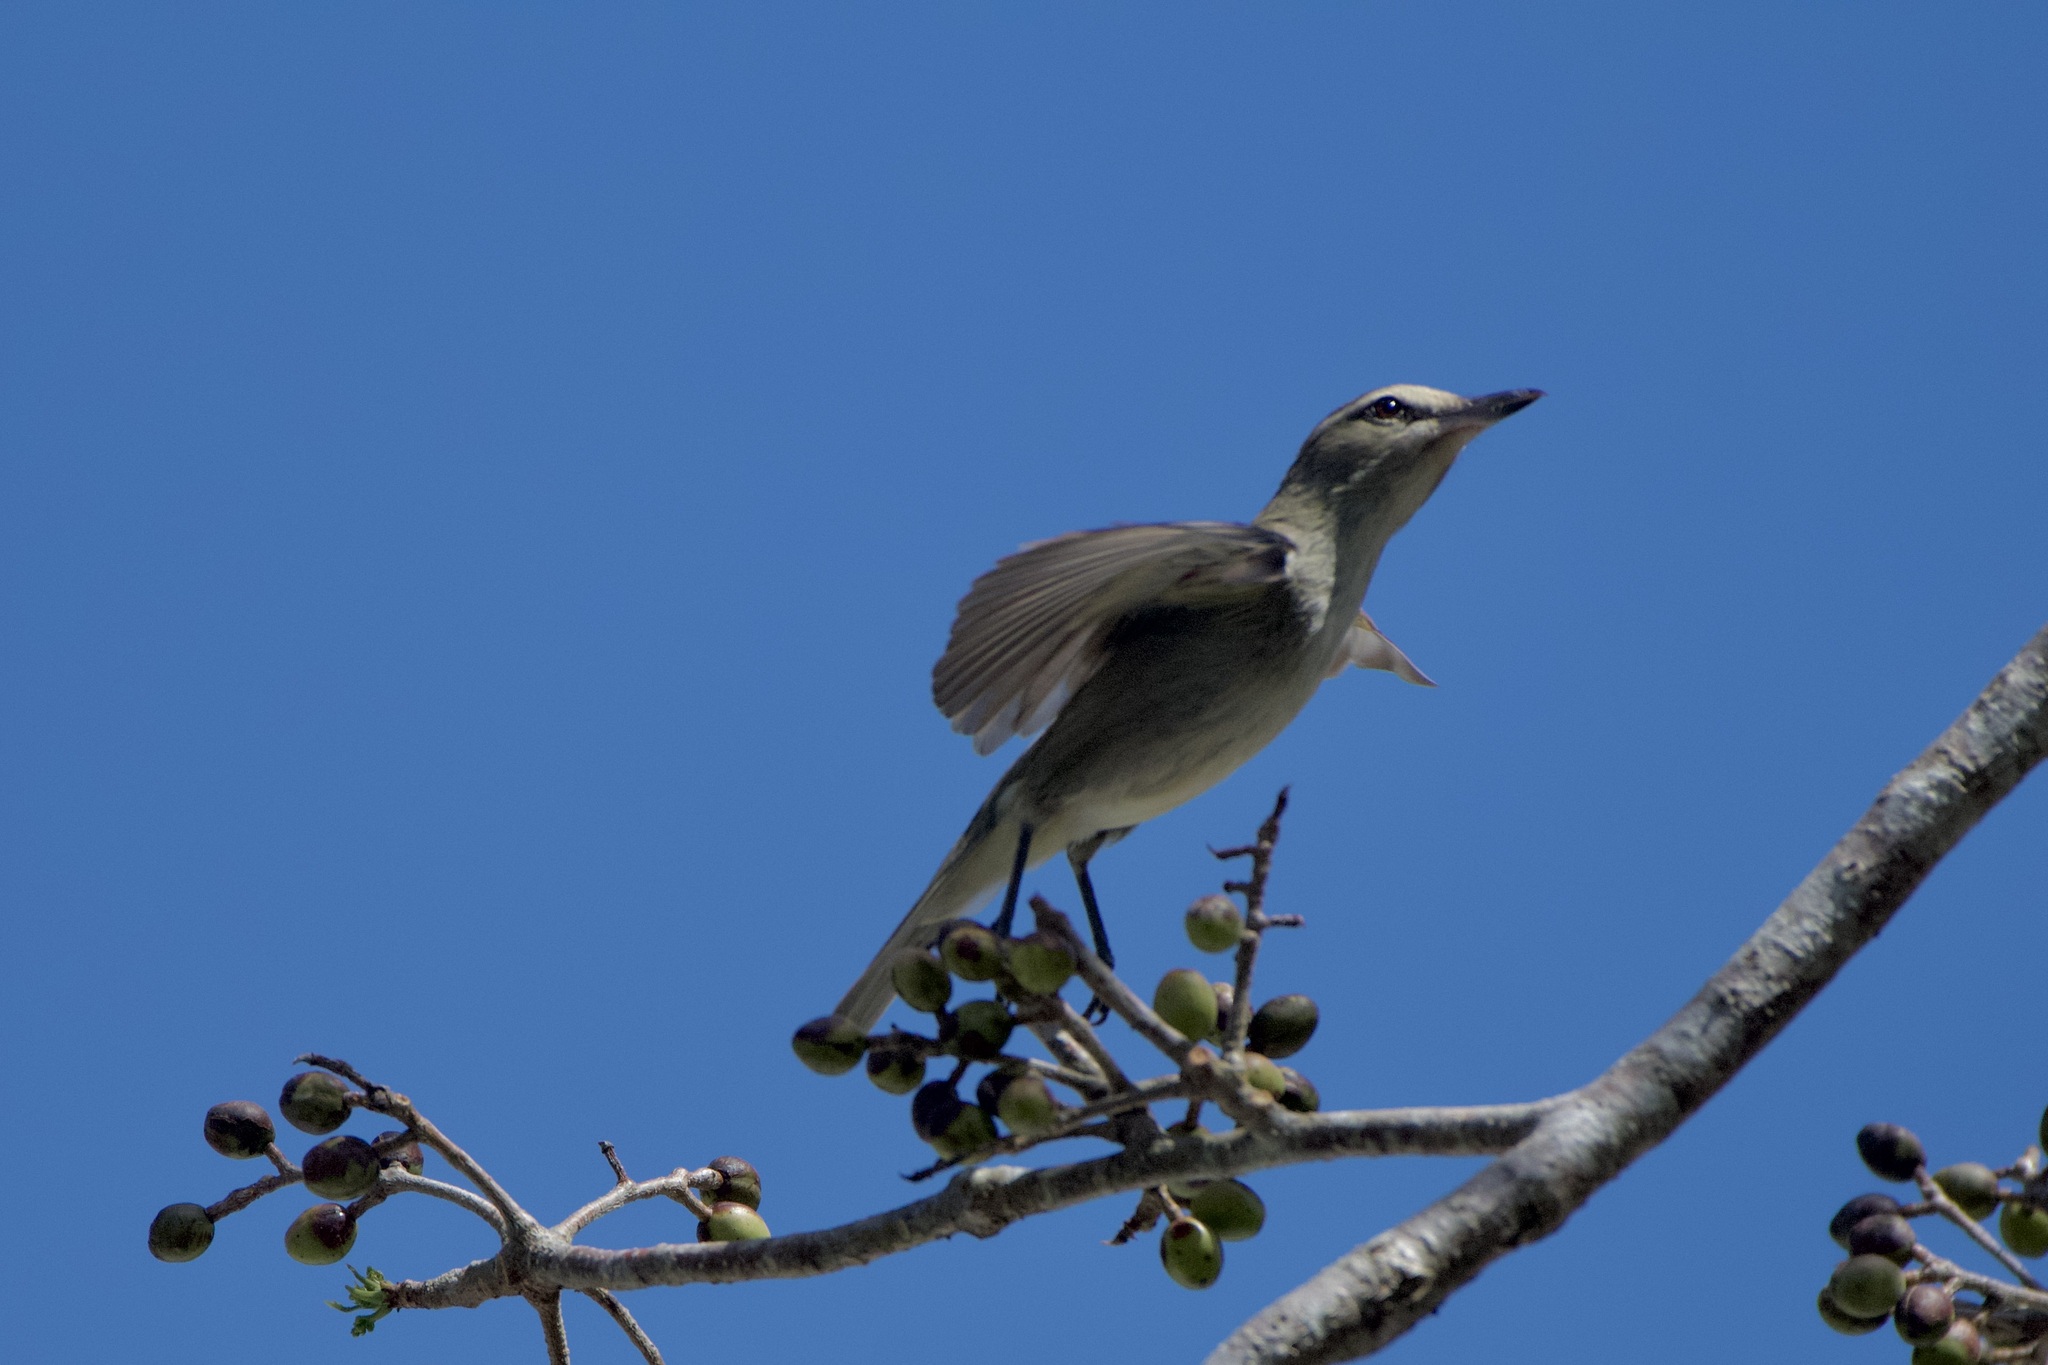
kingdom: Animalia
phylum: Chordata
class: Aves
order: Passeriformes
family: Vireonidae
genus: Vireo
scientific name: Vireo magister
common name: Yucatan vireo
